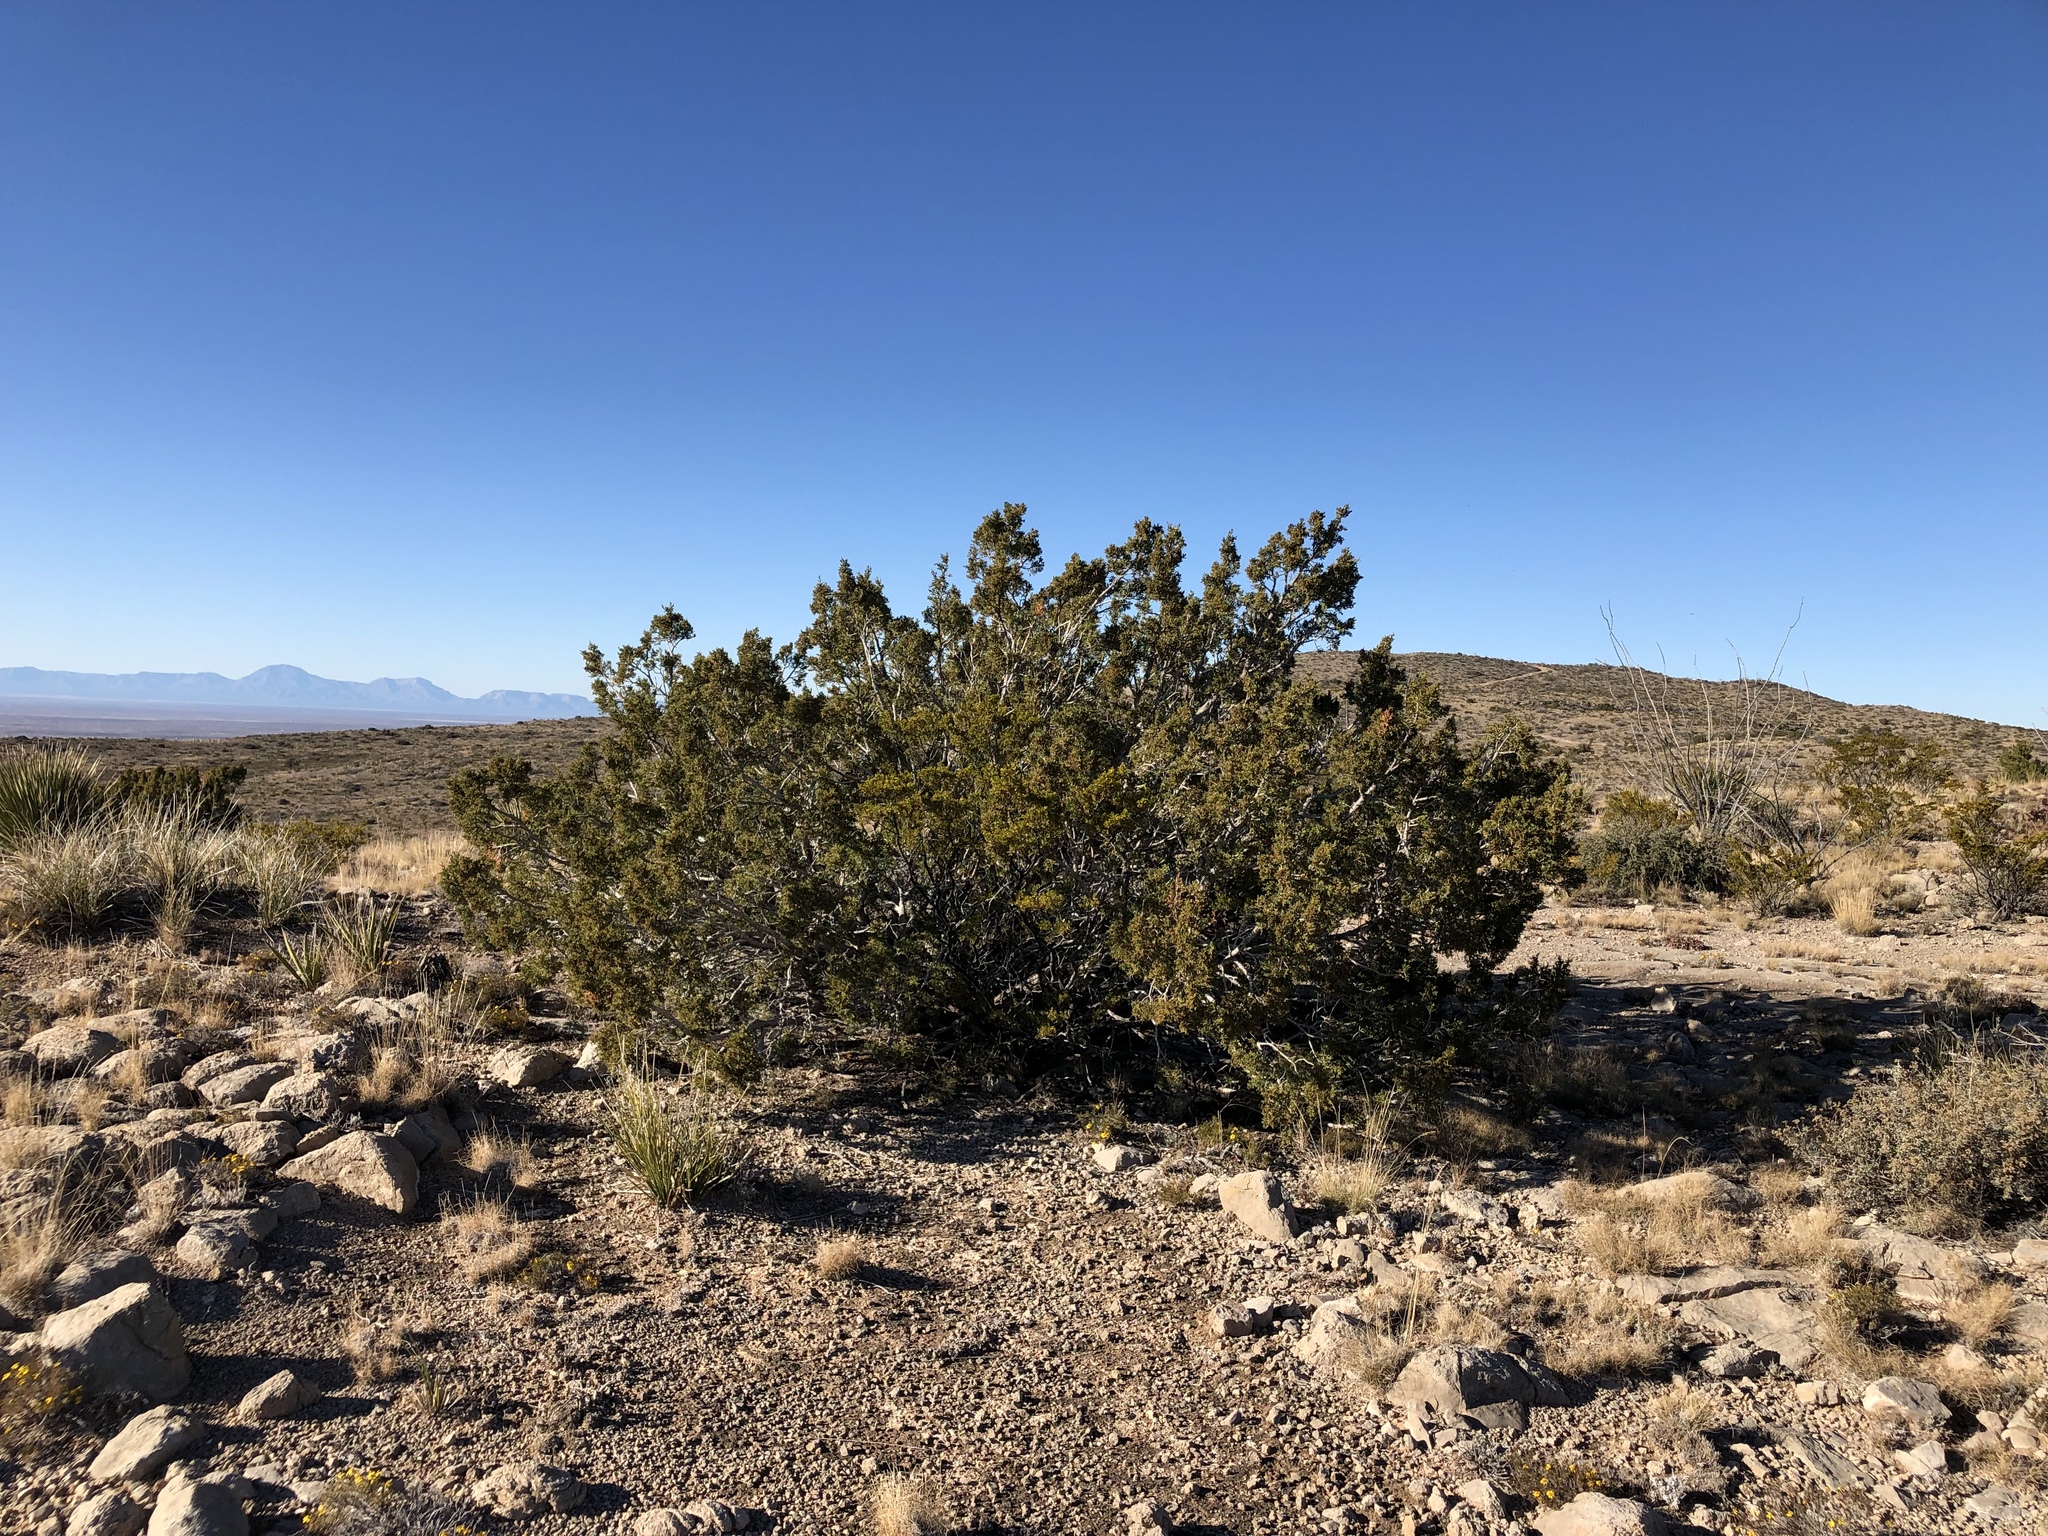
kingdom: Plantae
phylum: Tracheophyta
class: Pinopsida
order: Pinales
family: Cupressaceae
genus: Juniperus
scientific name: Juniperus monosperma
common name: One-seed juniper
